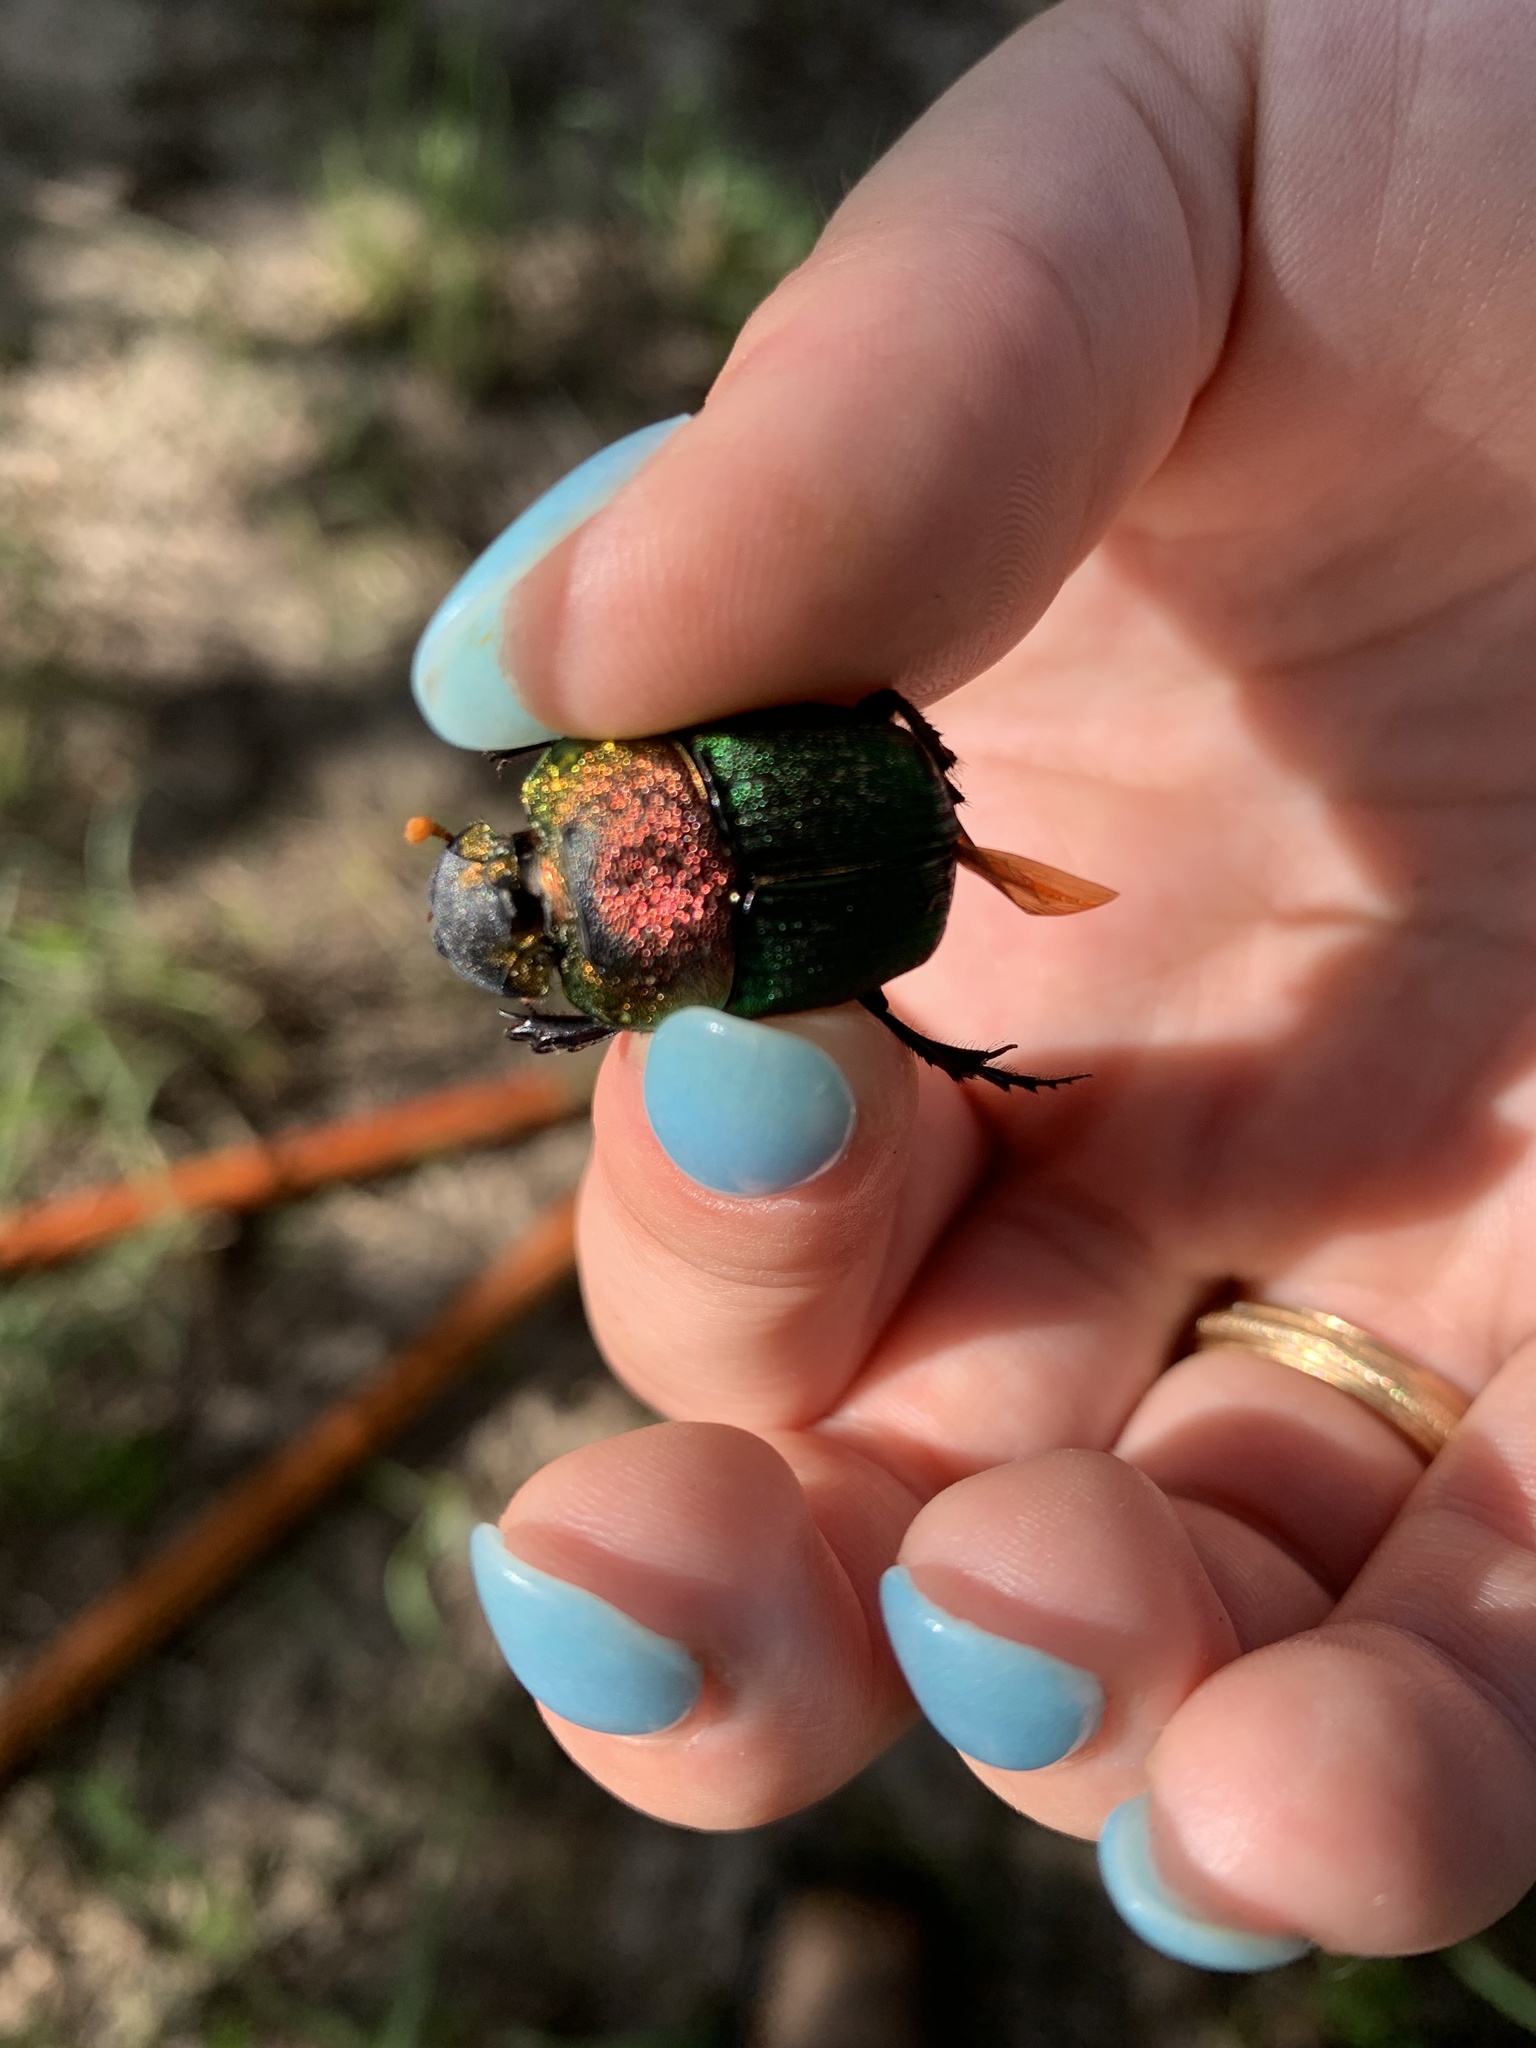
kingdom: Animalia
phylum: Arthropoda
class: Insecta
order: Coleoptera
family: Scarabaeidae
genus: Phanaeus
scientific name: Phanaeus vindex
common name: Rainbow scarab
